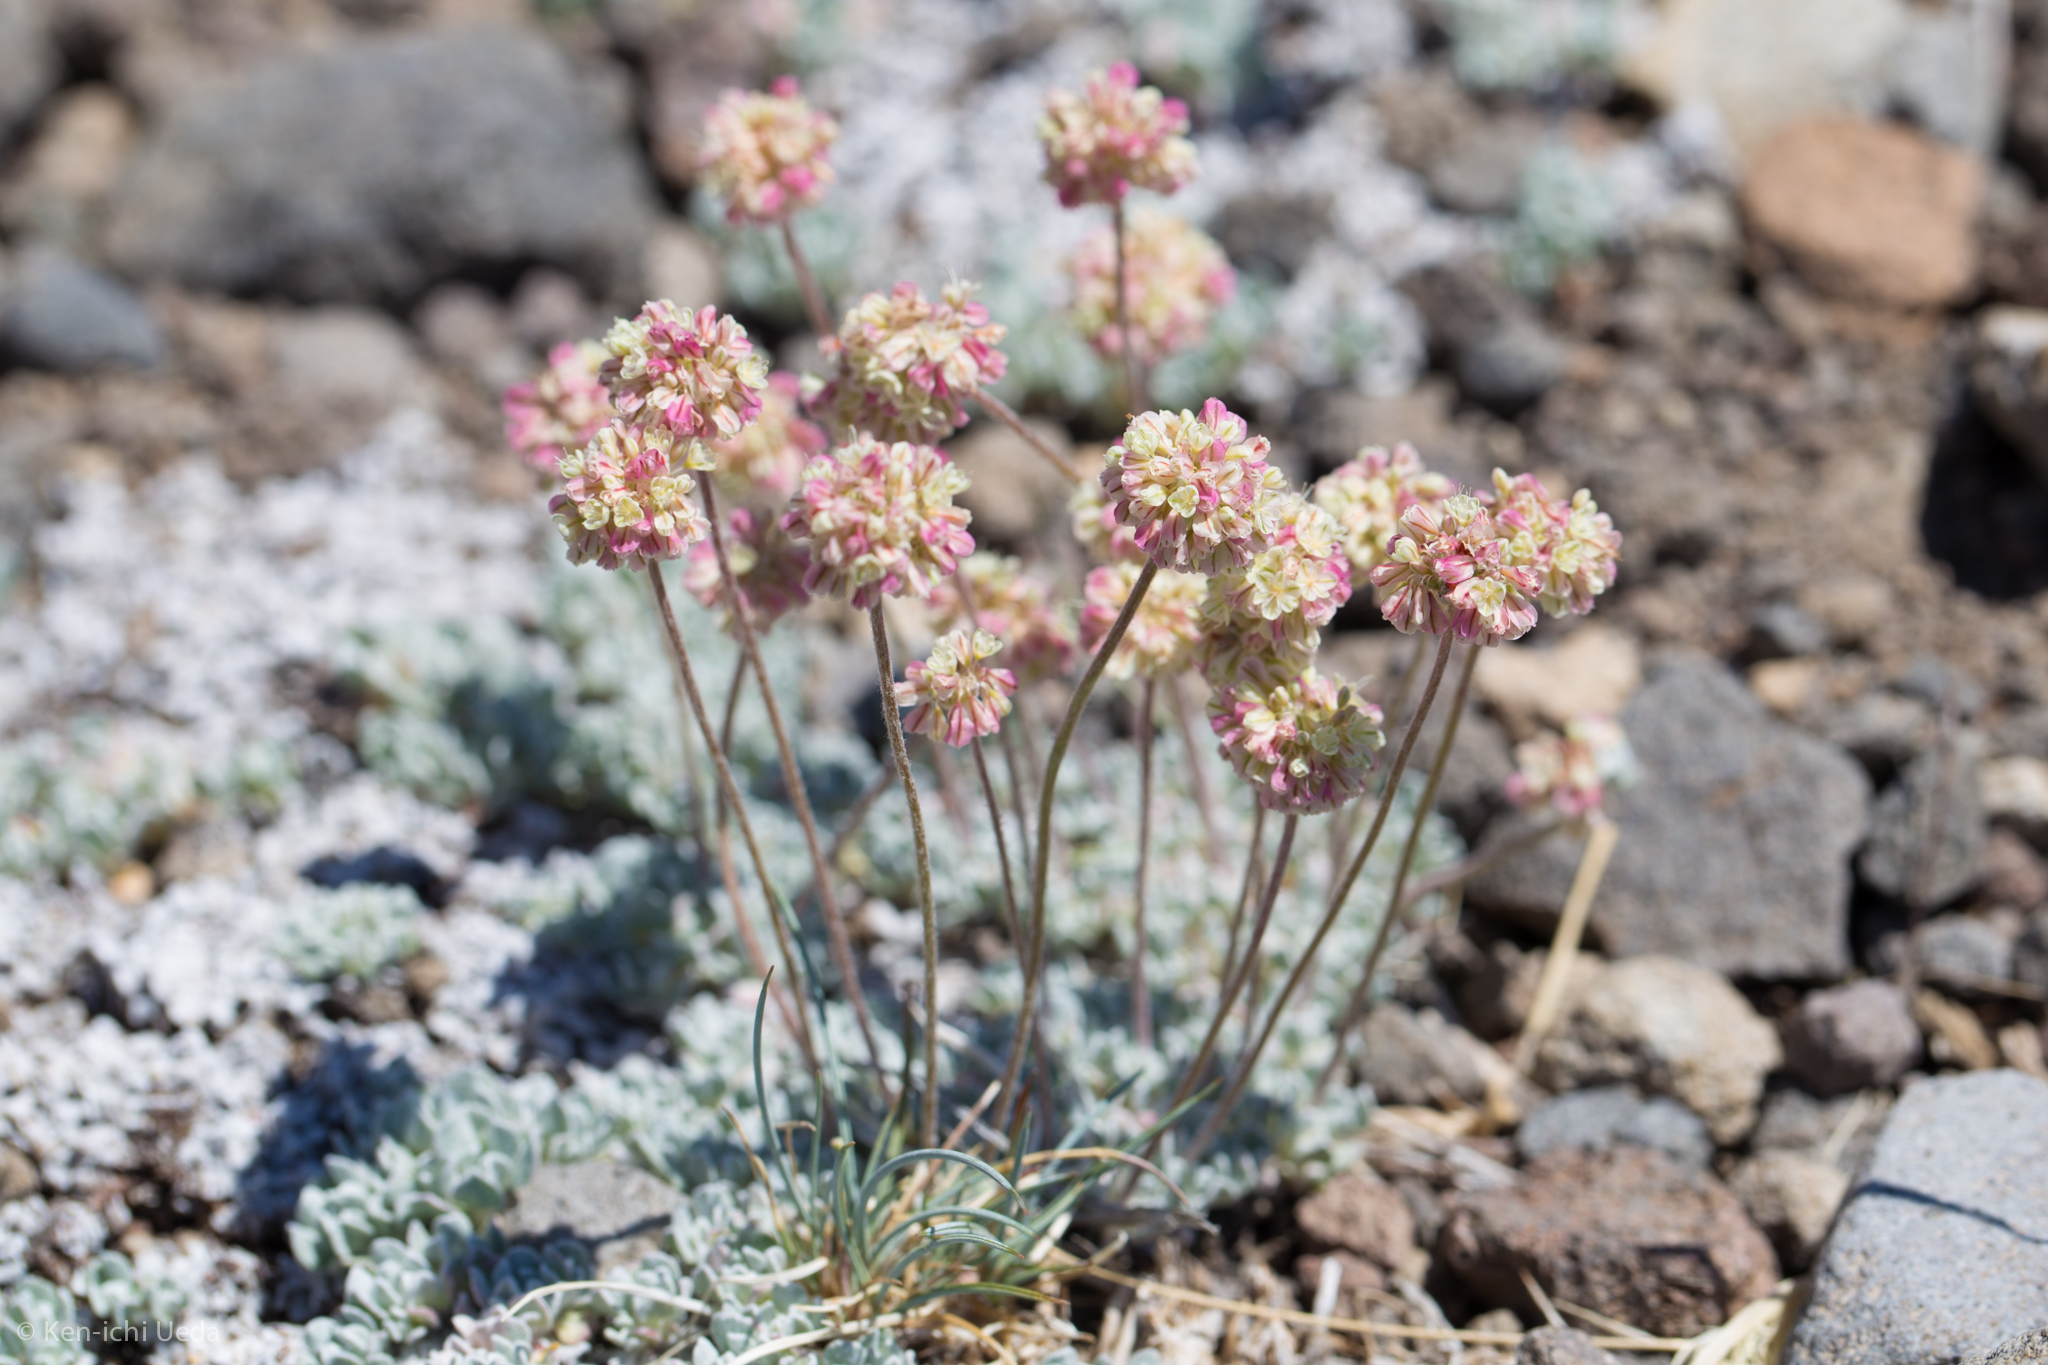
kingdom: Plantae
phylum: Tracheophyta
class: Magnoliopsida
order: Caryophyllales
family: Polygonaceae
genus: Eriogonum
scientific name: Eriogonum ovalifolium
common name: Cushion buckwheat
